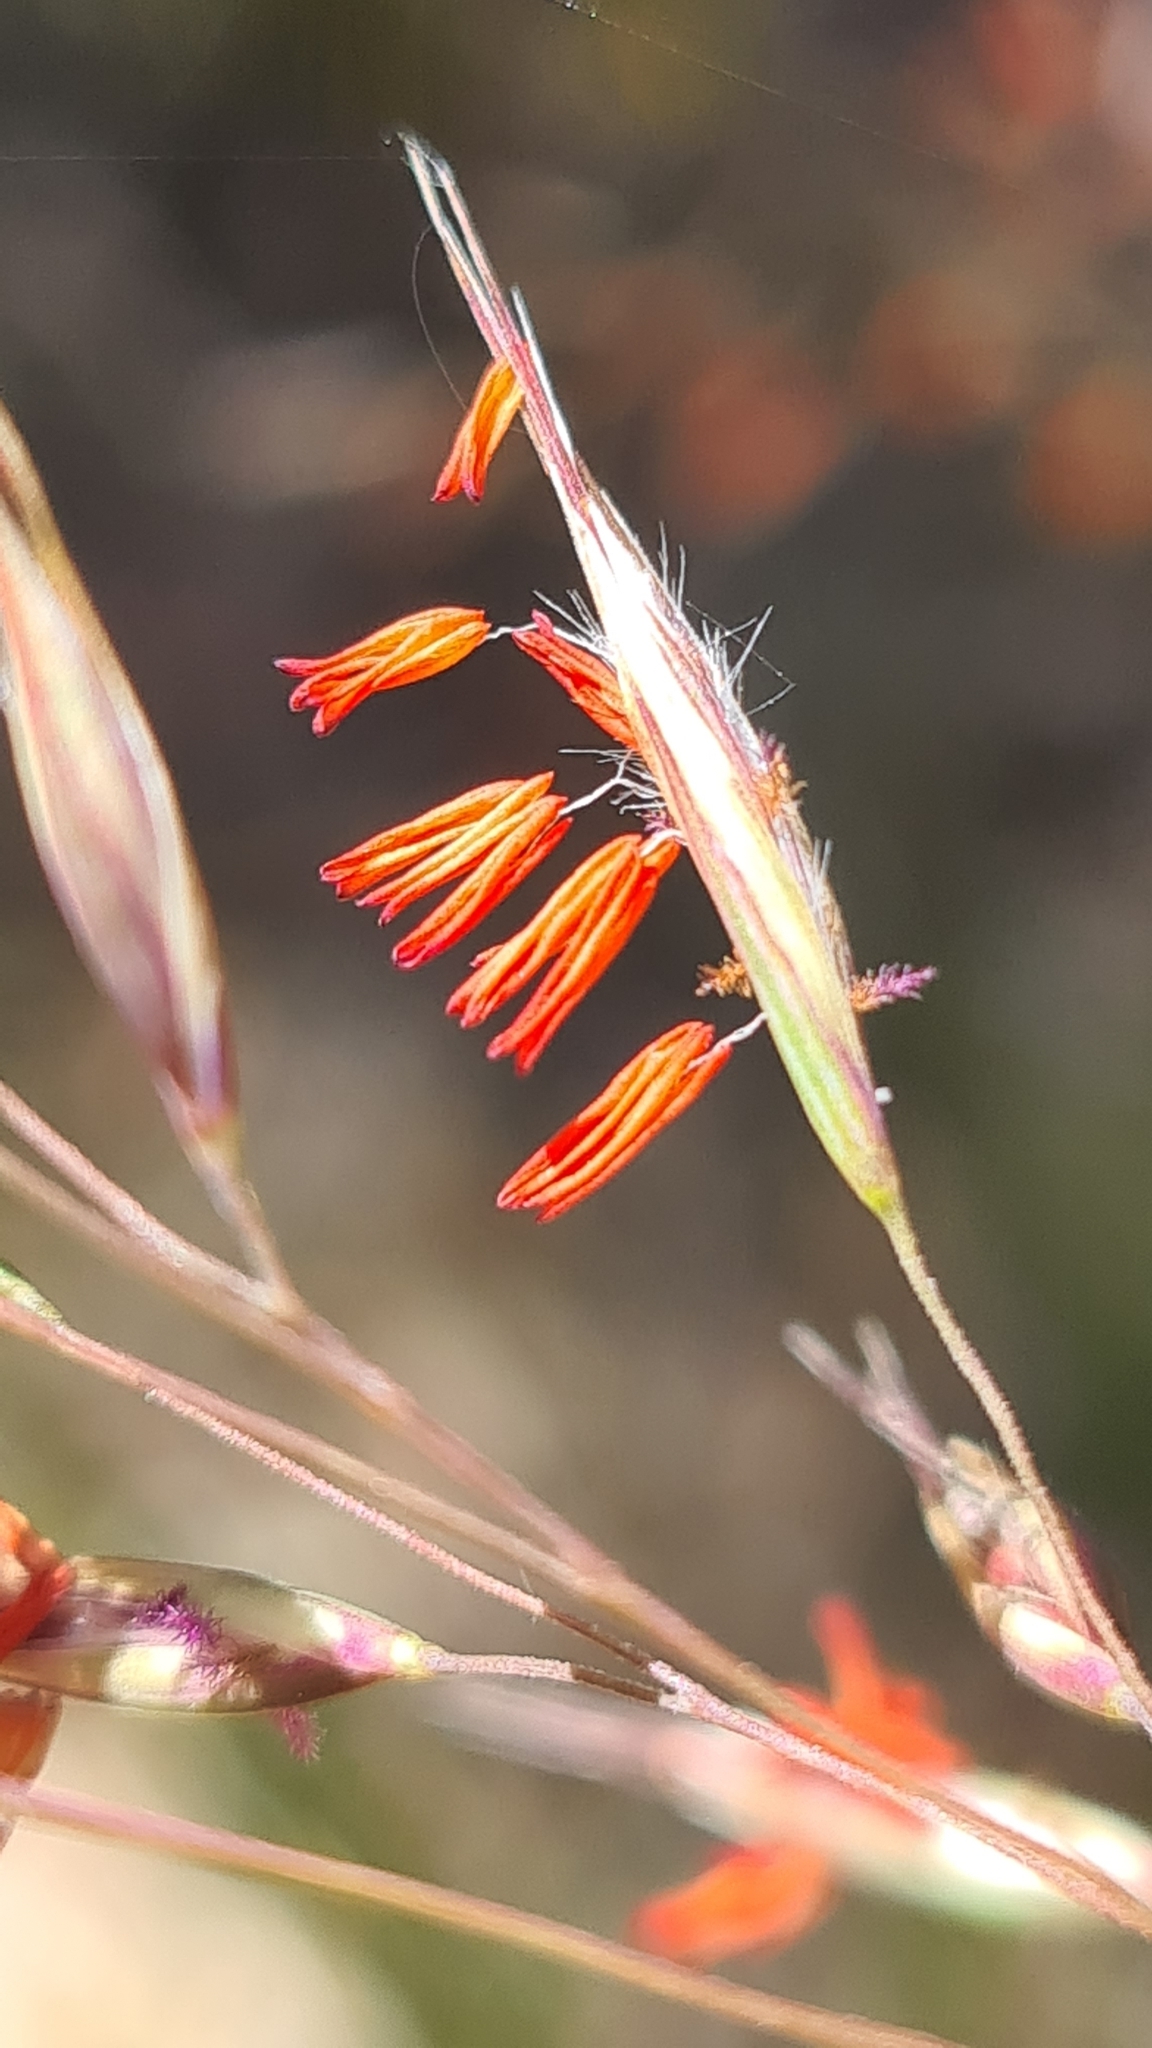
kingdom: Plantae
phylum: Tracheophyta
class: Liliopsida
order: Poales
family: Poaceae
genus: Rytidosperma
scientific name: Rytidosperma pallidum
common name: Red-anther wallaby grass
